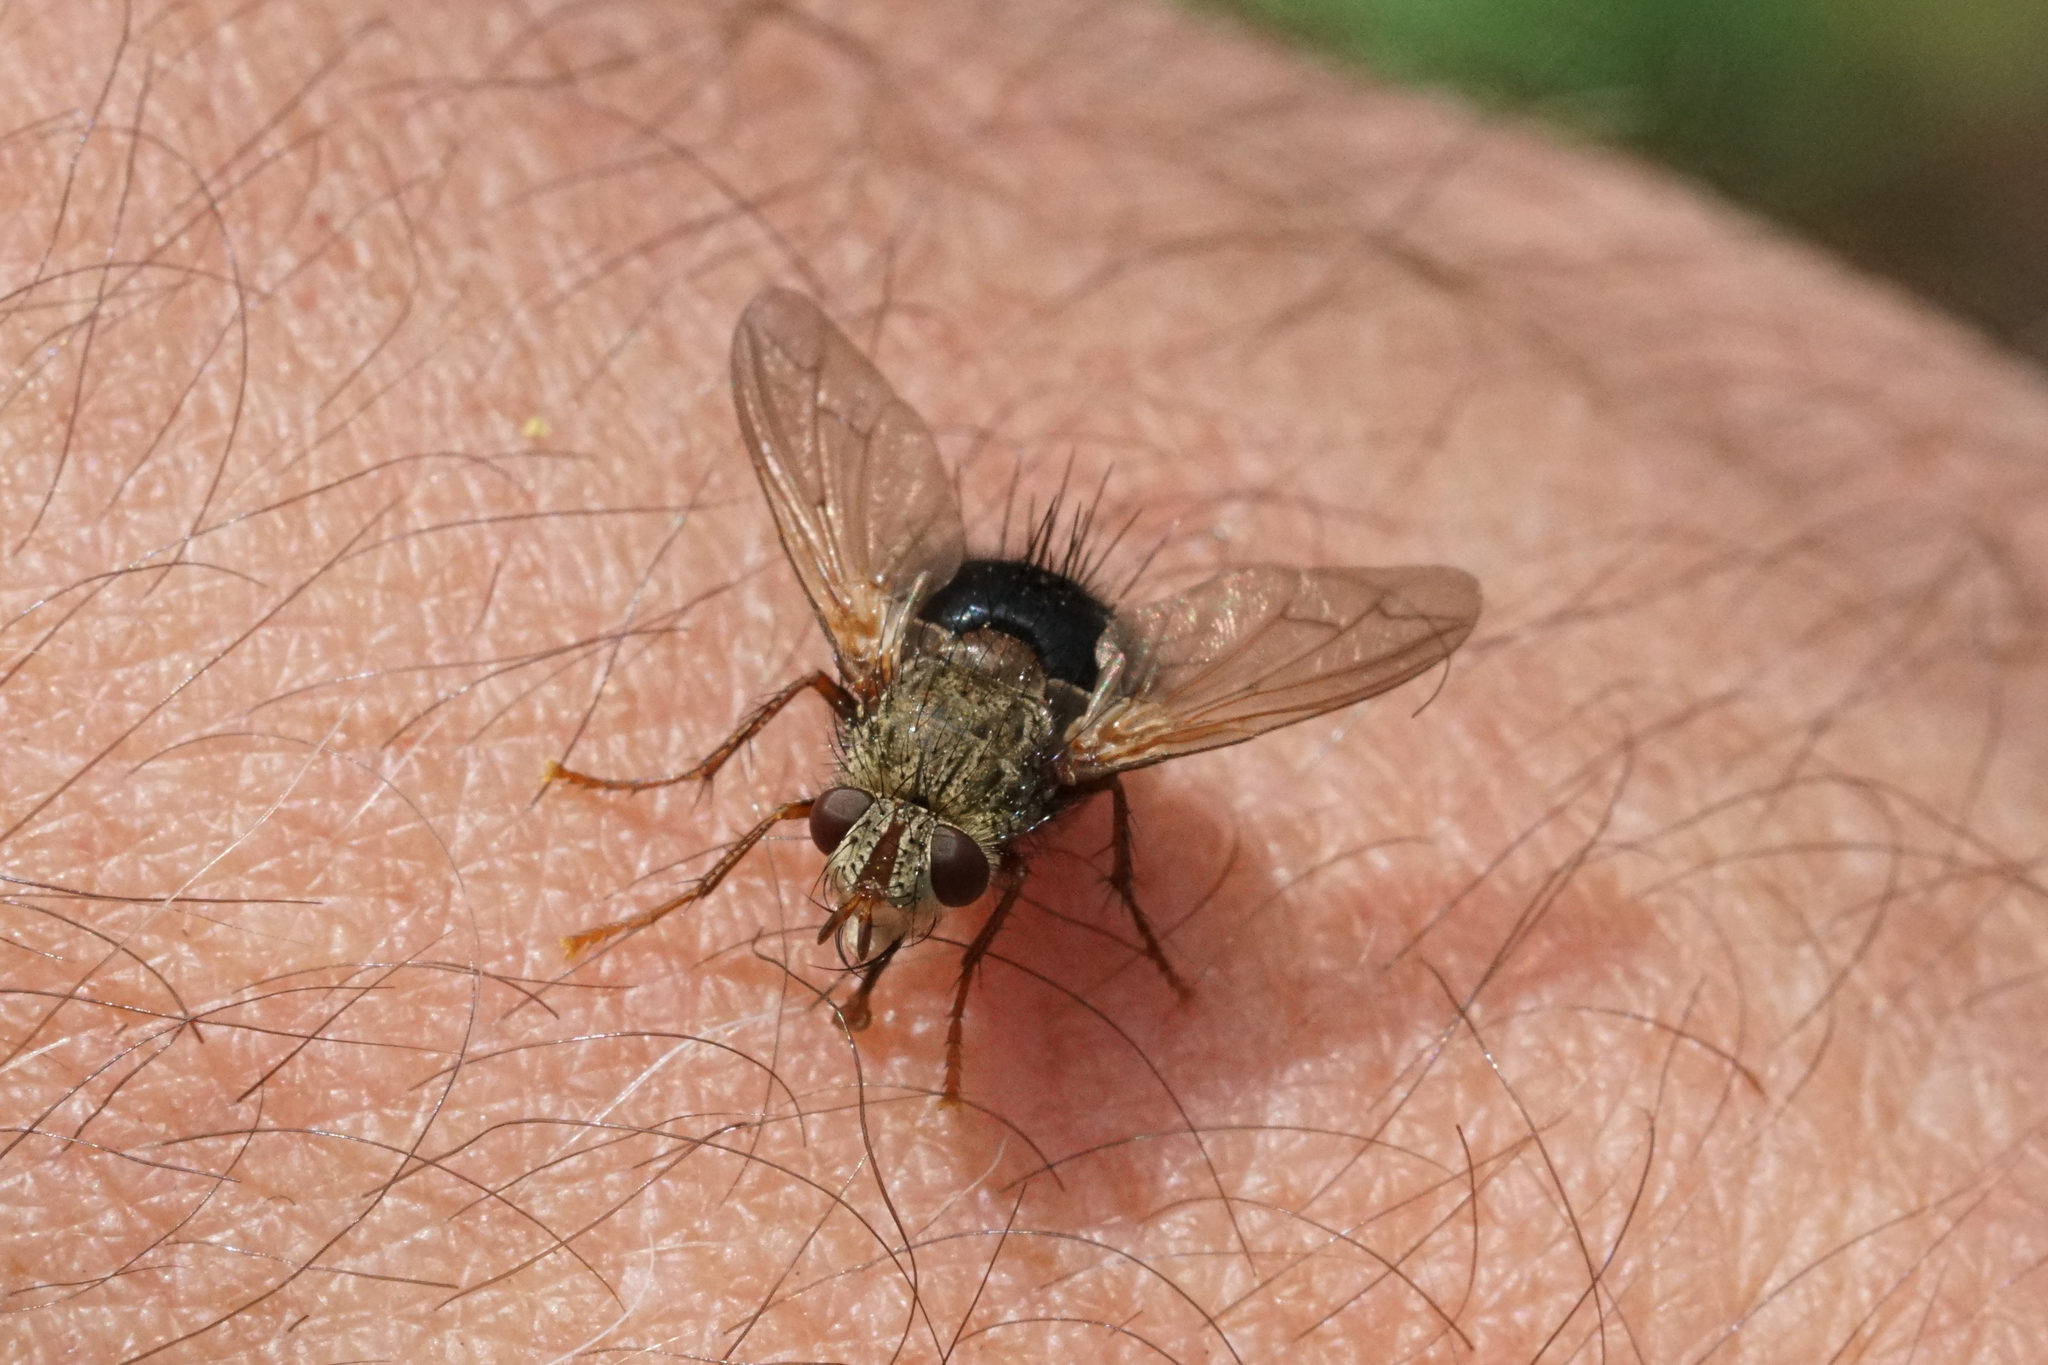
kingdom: Animalia
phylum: Arthropoda
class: Insecta
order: Diptera
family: Tachinidae
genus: Epalpus
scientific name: Epalpus signifer
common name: Early tachinid fly
